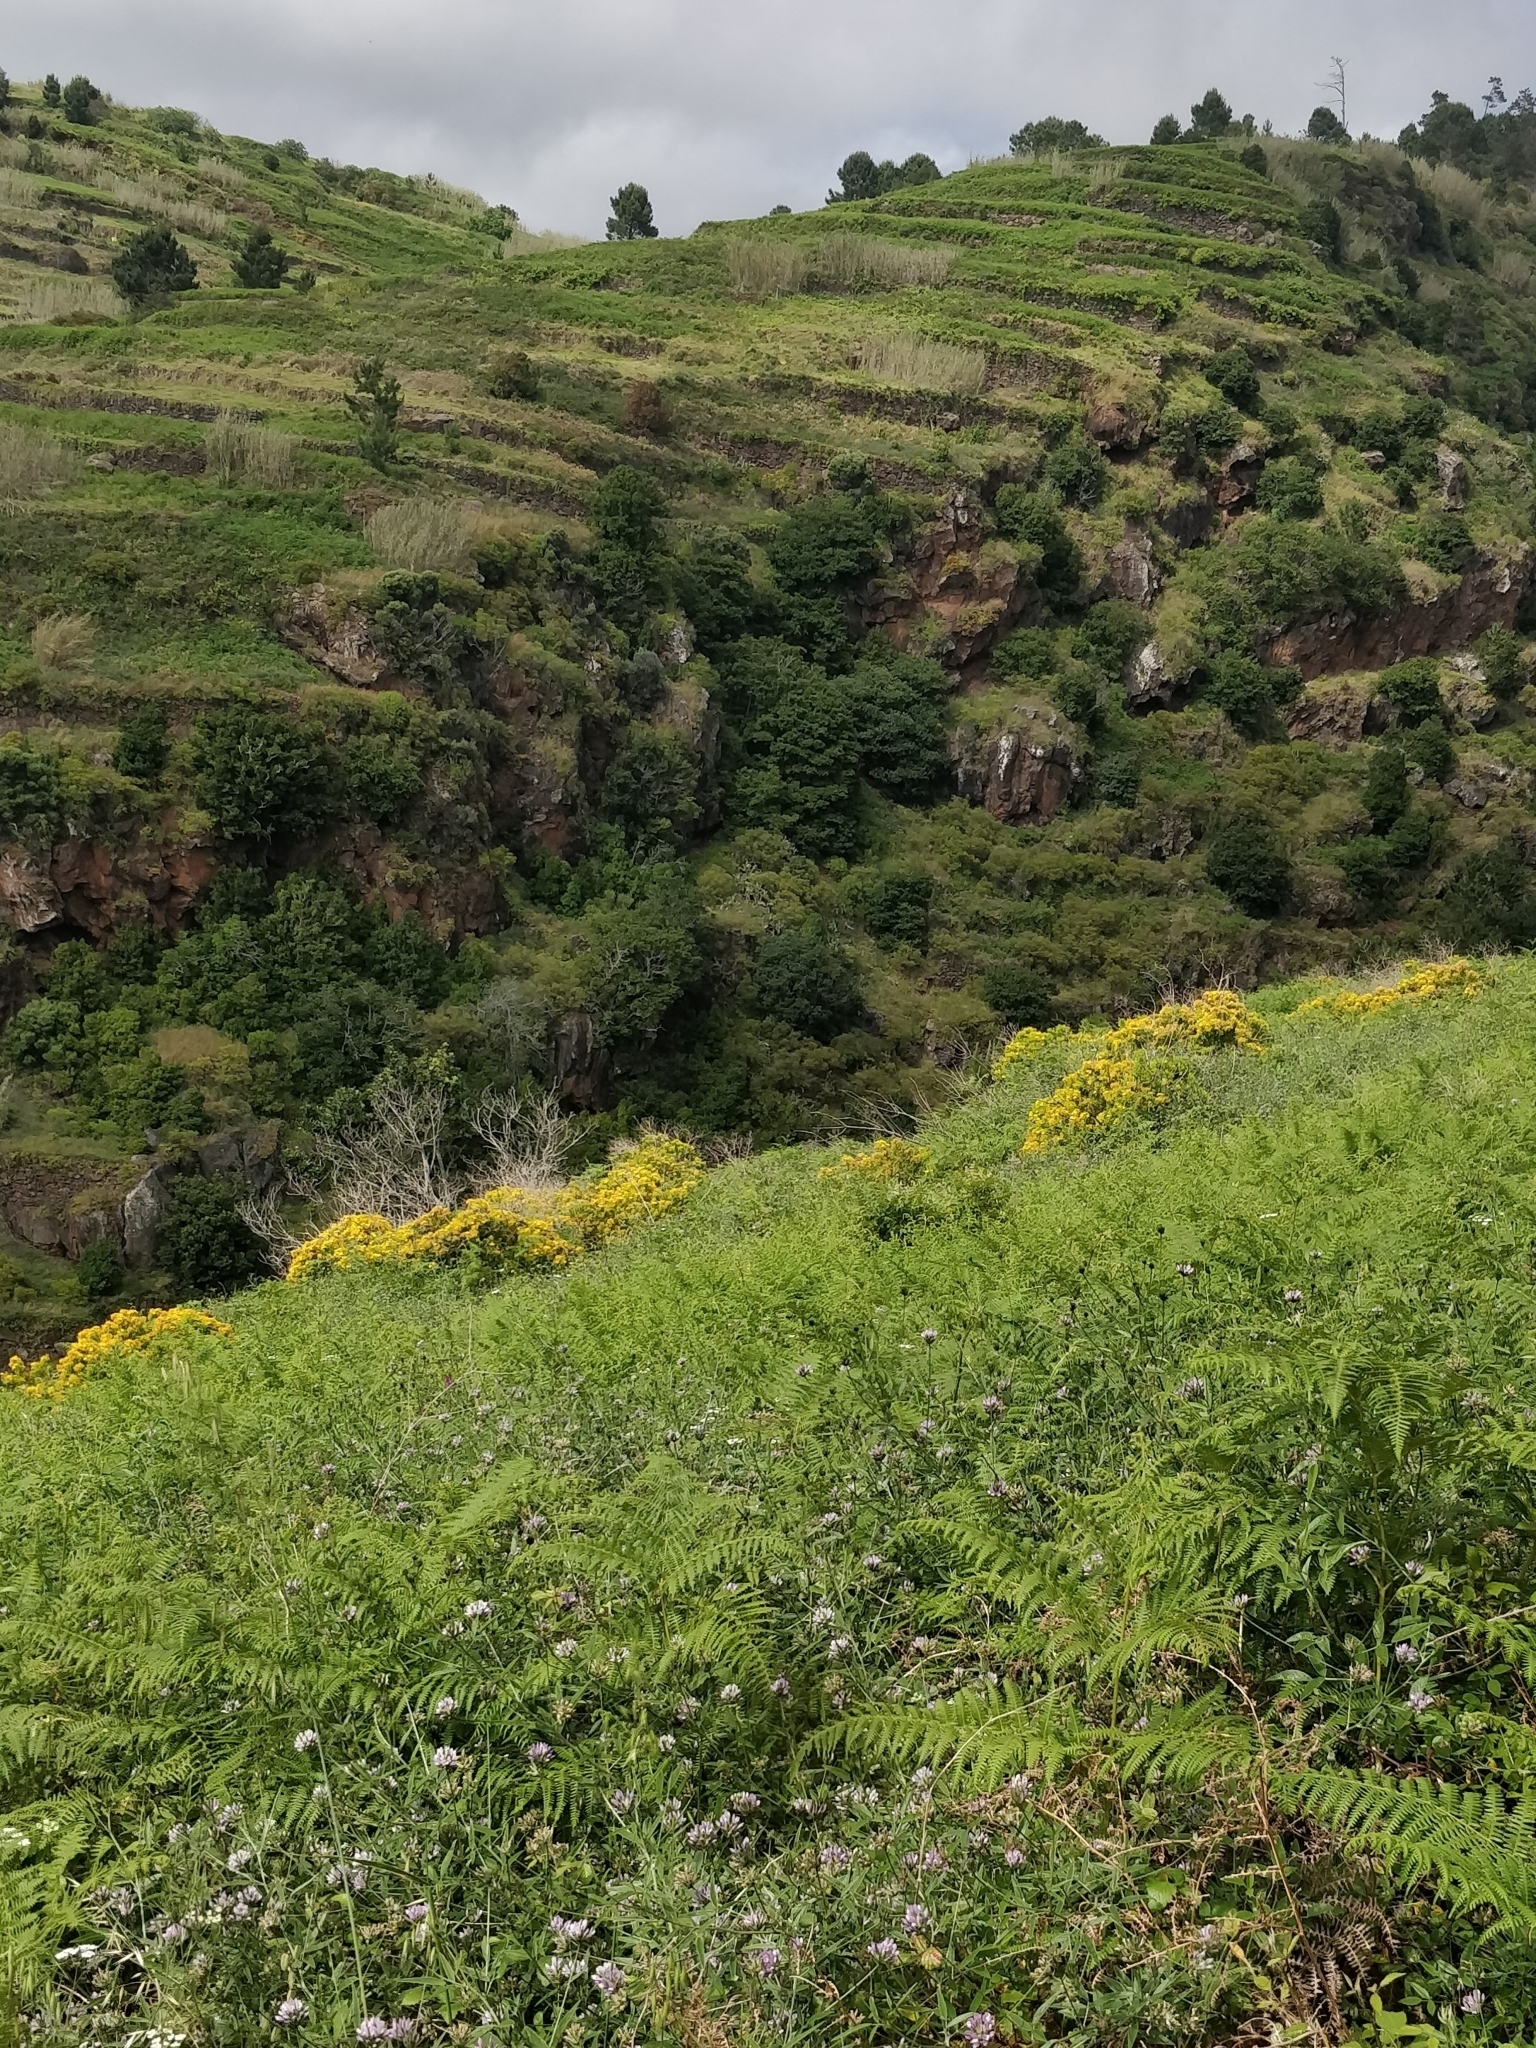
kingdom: Plantae
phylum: Tracheophyta
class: Magnoliopsida
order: Malpighiales
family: Hypericaceae
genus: Hypericum
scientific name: Hypericum canariense
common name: Canary island st. johnswort
